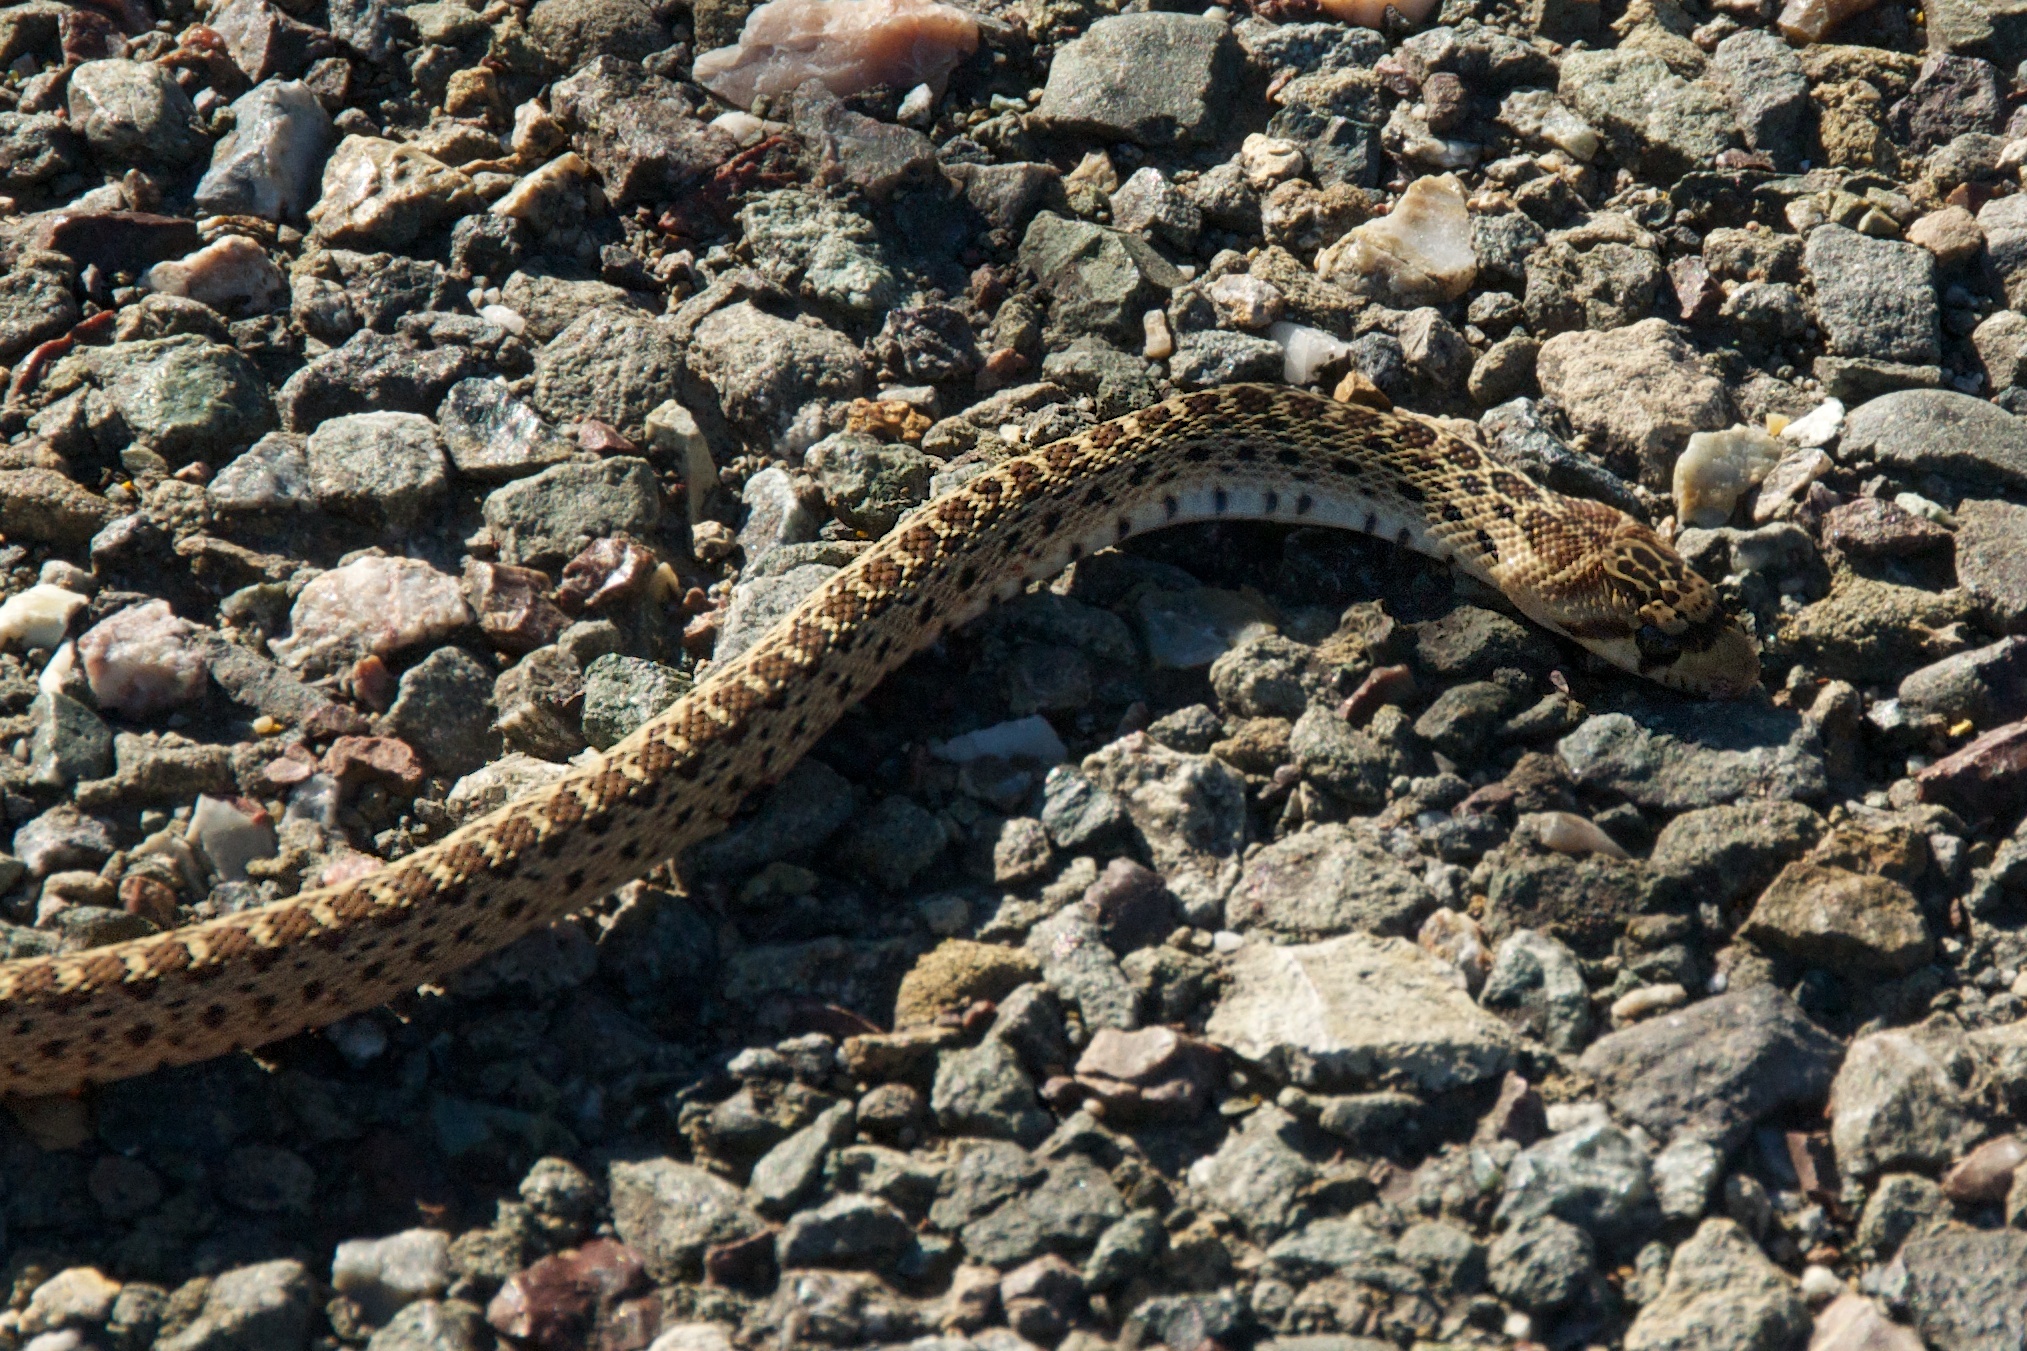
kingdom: Animalia
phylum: Chordata
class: Squamata
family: Colubridae
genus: Pituophis
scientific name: Pituophis catenifer
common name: Gopher snake
